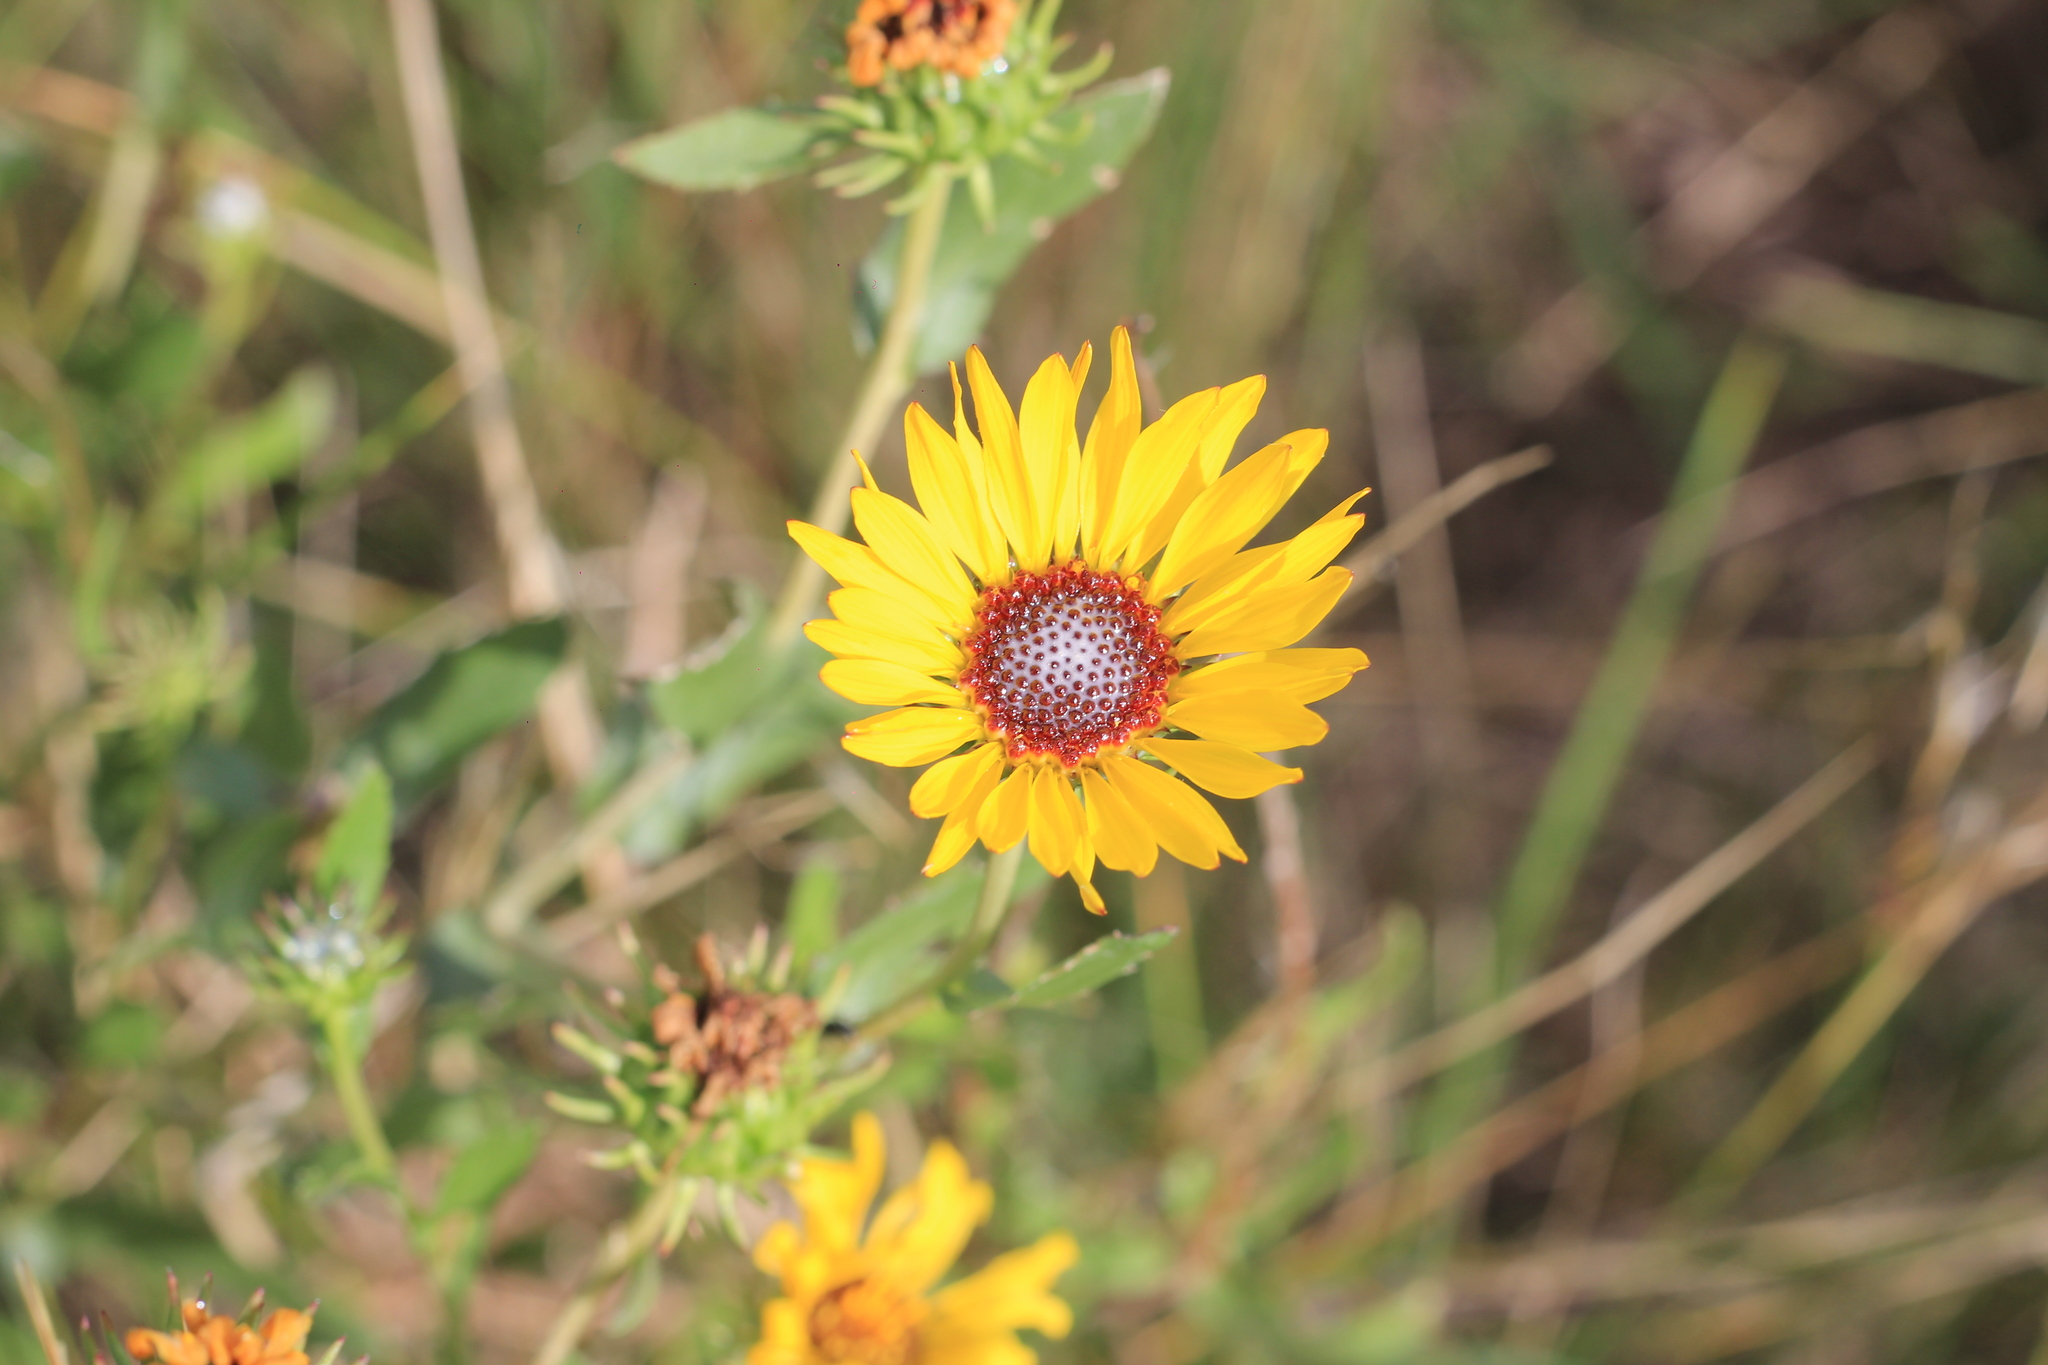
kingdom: Plantae
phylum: Tracheophyta
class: Magnoliopsida
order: Asterales
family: Asteraceae
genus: Grindelia
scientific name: Grindelia pulchella
